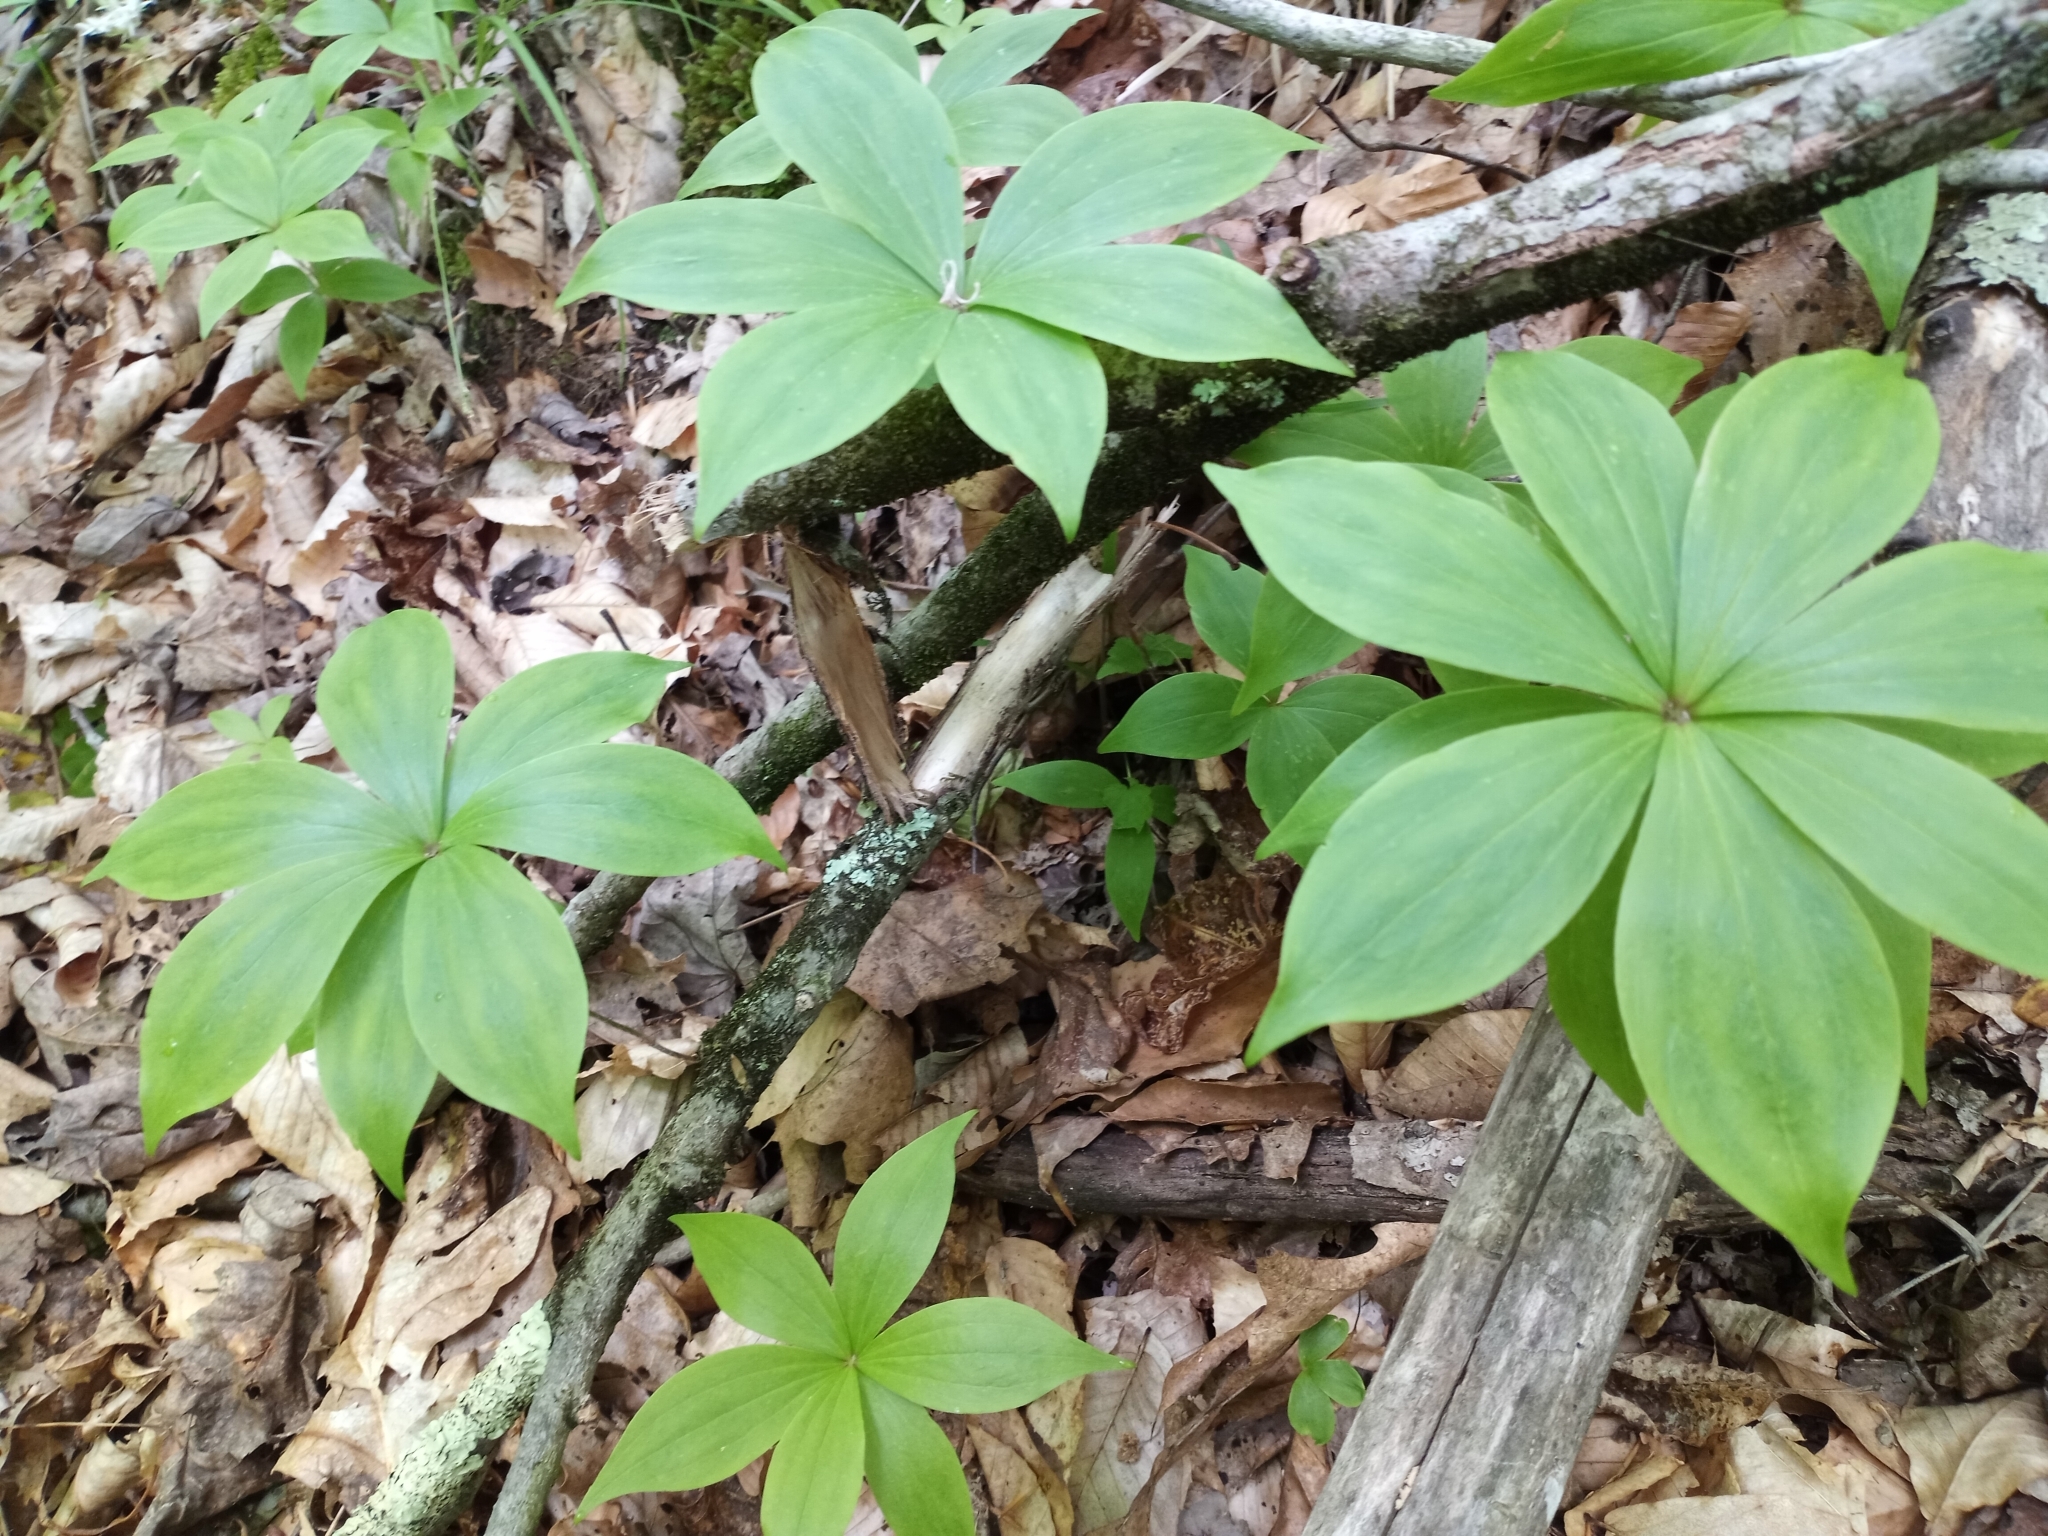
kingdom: Plantae
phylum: Tracheophyta
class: Liliopsida
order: Liliales
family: Liliaceae
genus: Medeola
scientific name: Medeola virginiana
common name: Indian cucumber-root
